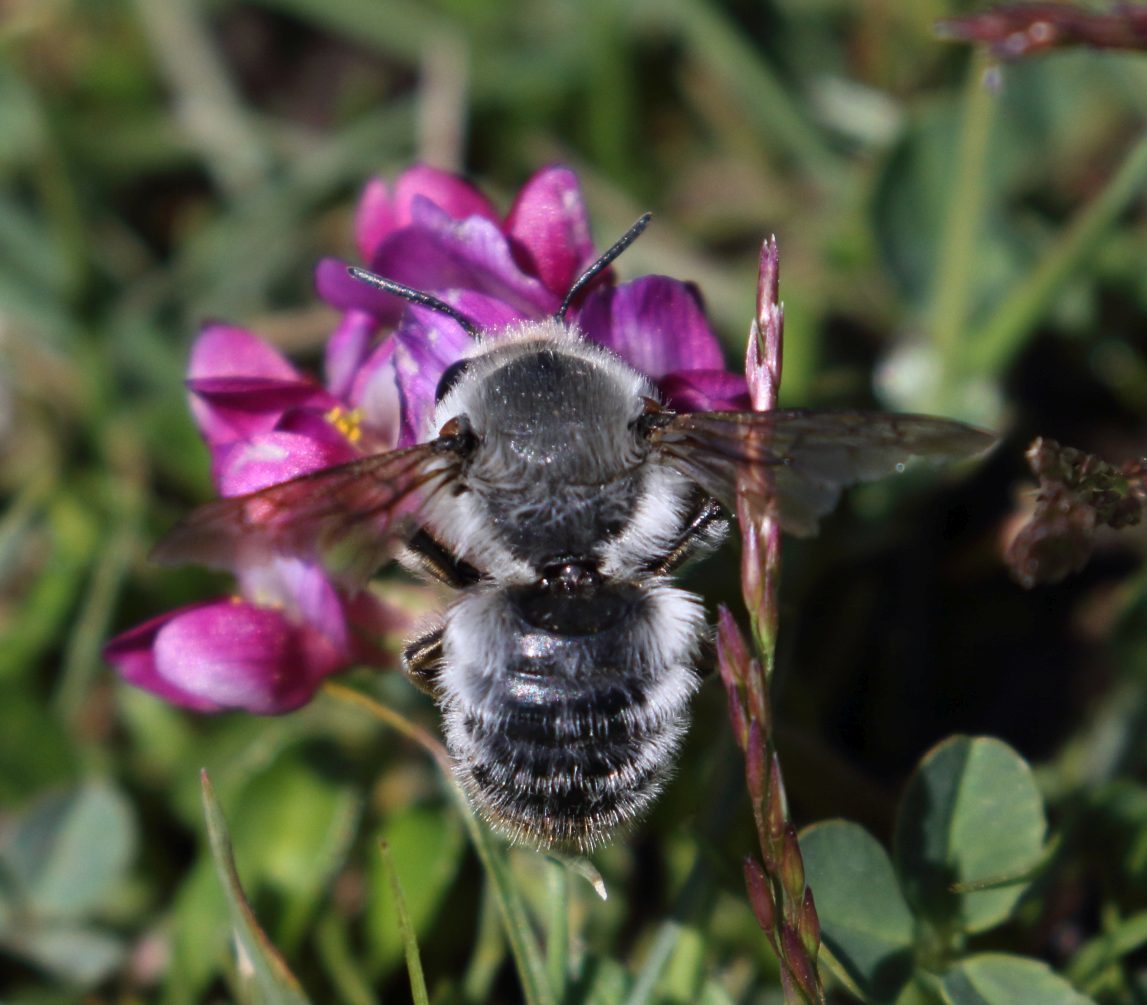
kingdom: Plantae
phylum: Tracheophyta
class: Magnoliopsida
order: Fabales
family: Fabaceae
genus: Trifolium
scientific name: Trifolium burchellianum
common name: Burchell's clover
